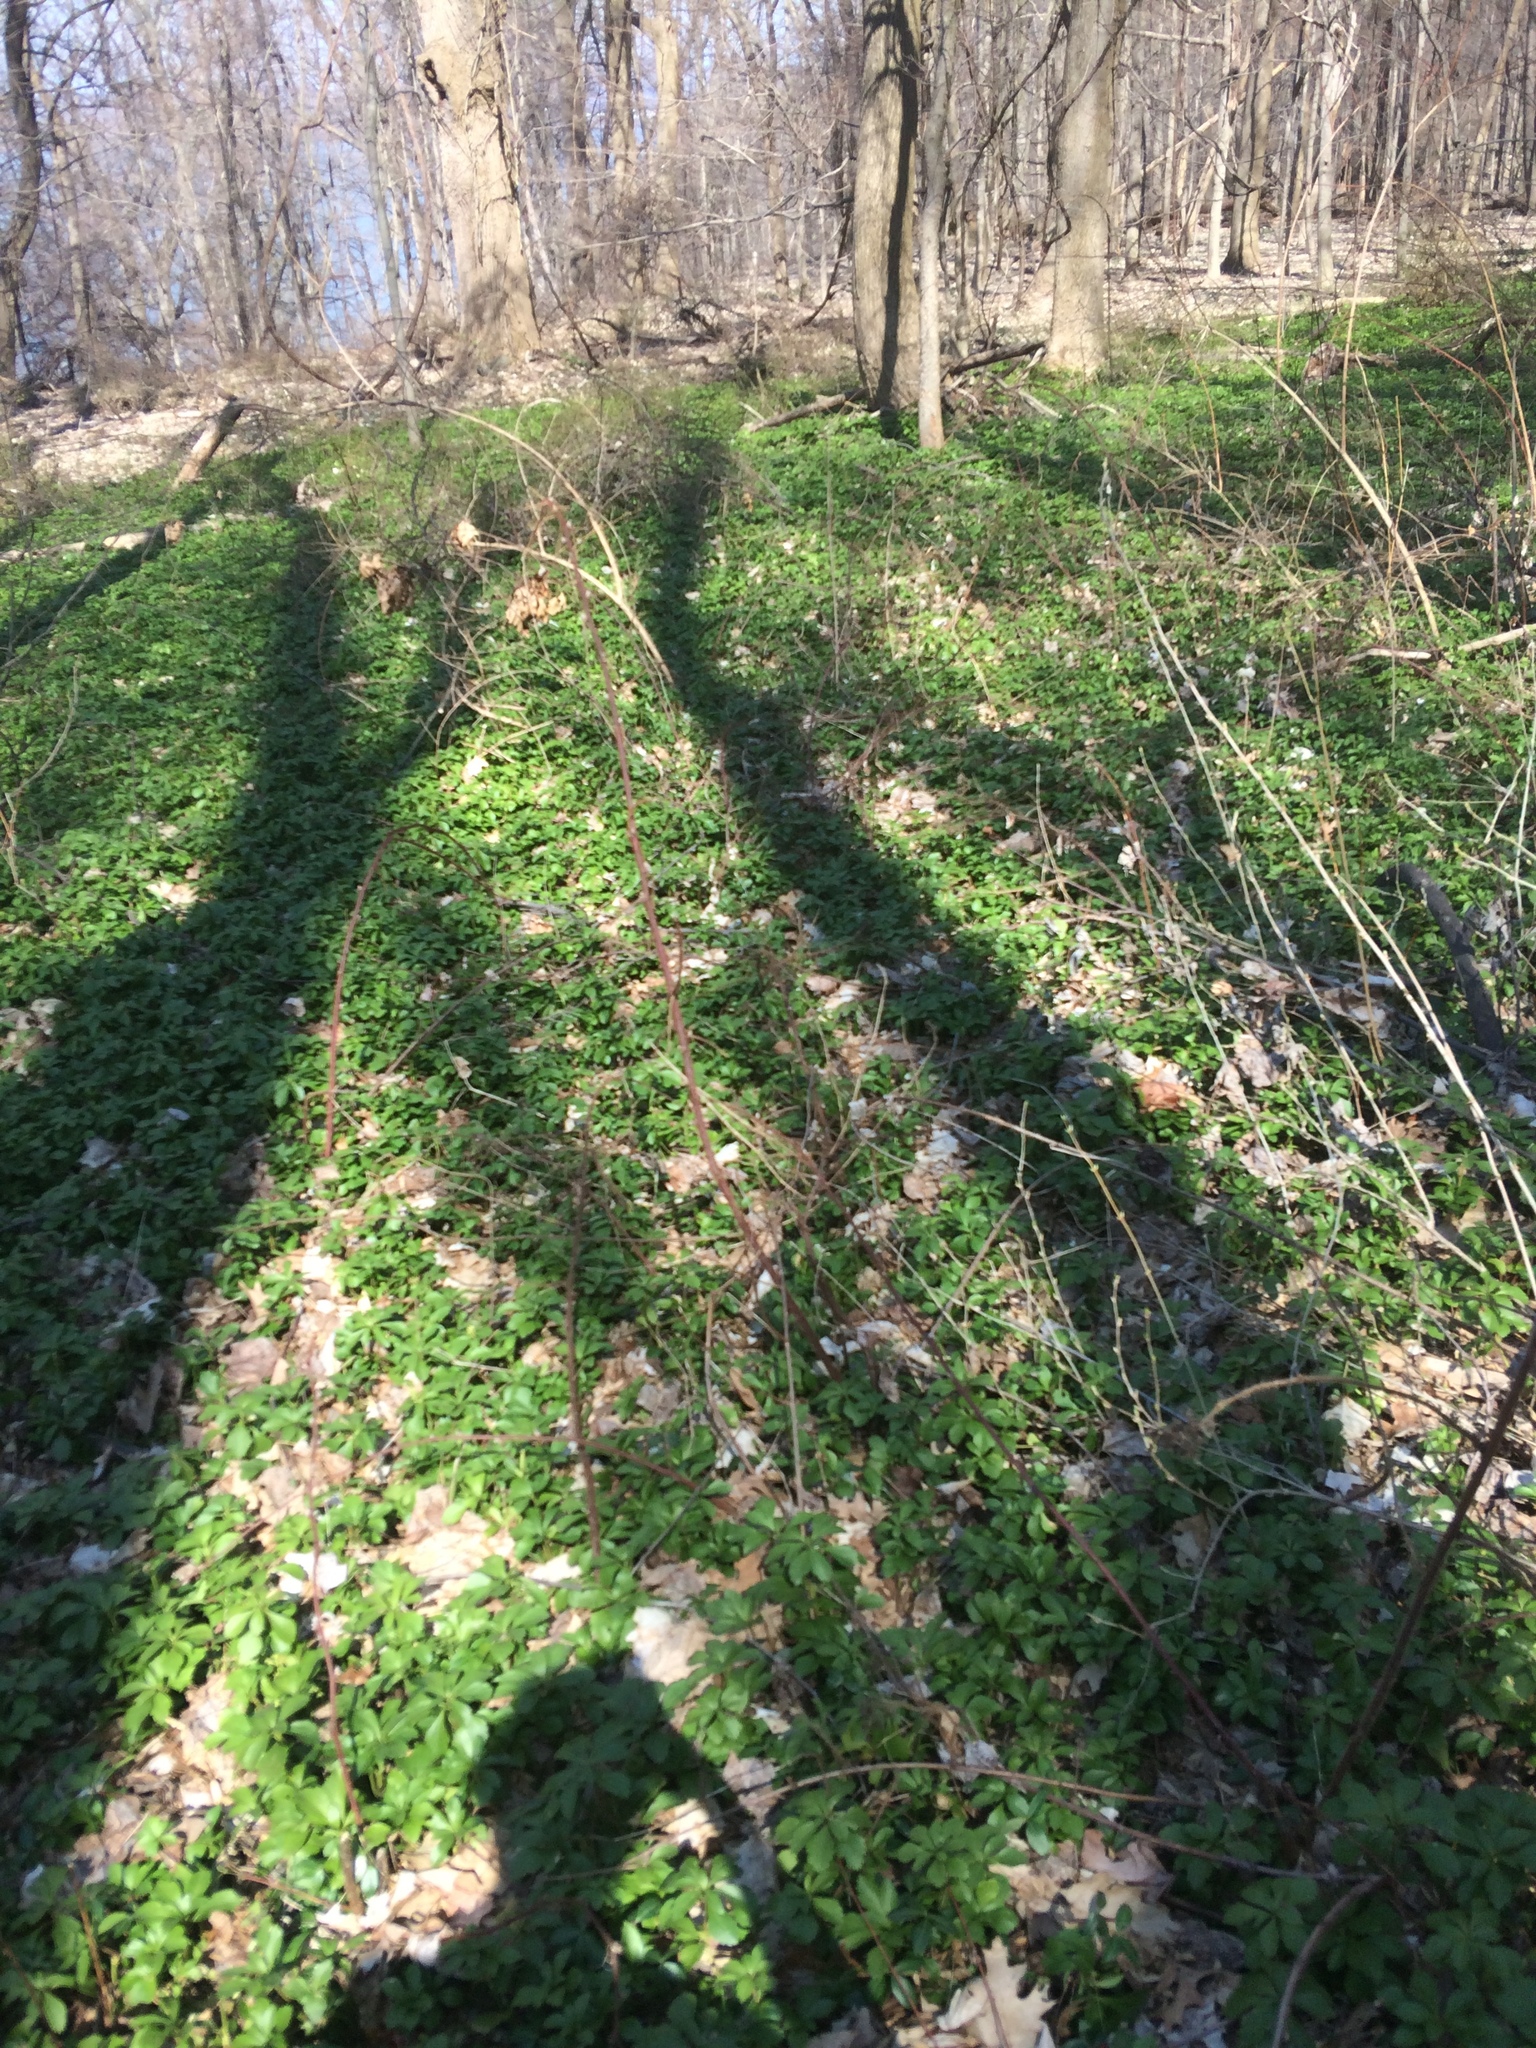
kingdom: Plantae
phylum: Tracheophyta
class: Magnoliopsida
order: Buxales
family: Buxaceae
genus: Pachysandra
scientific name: Pachysandra terminalis
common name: Japanese pachysandra
